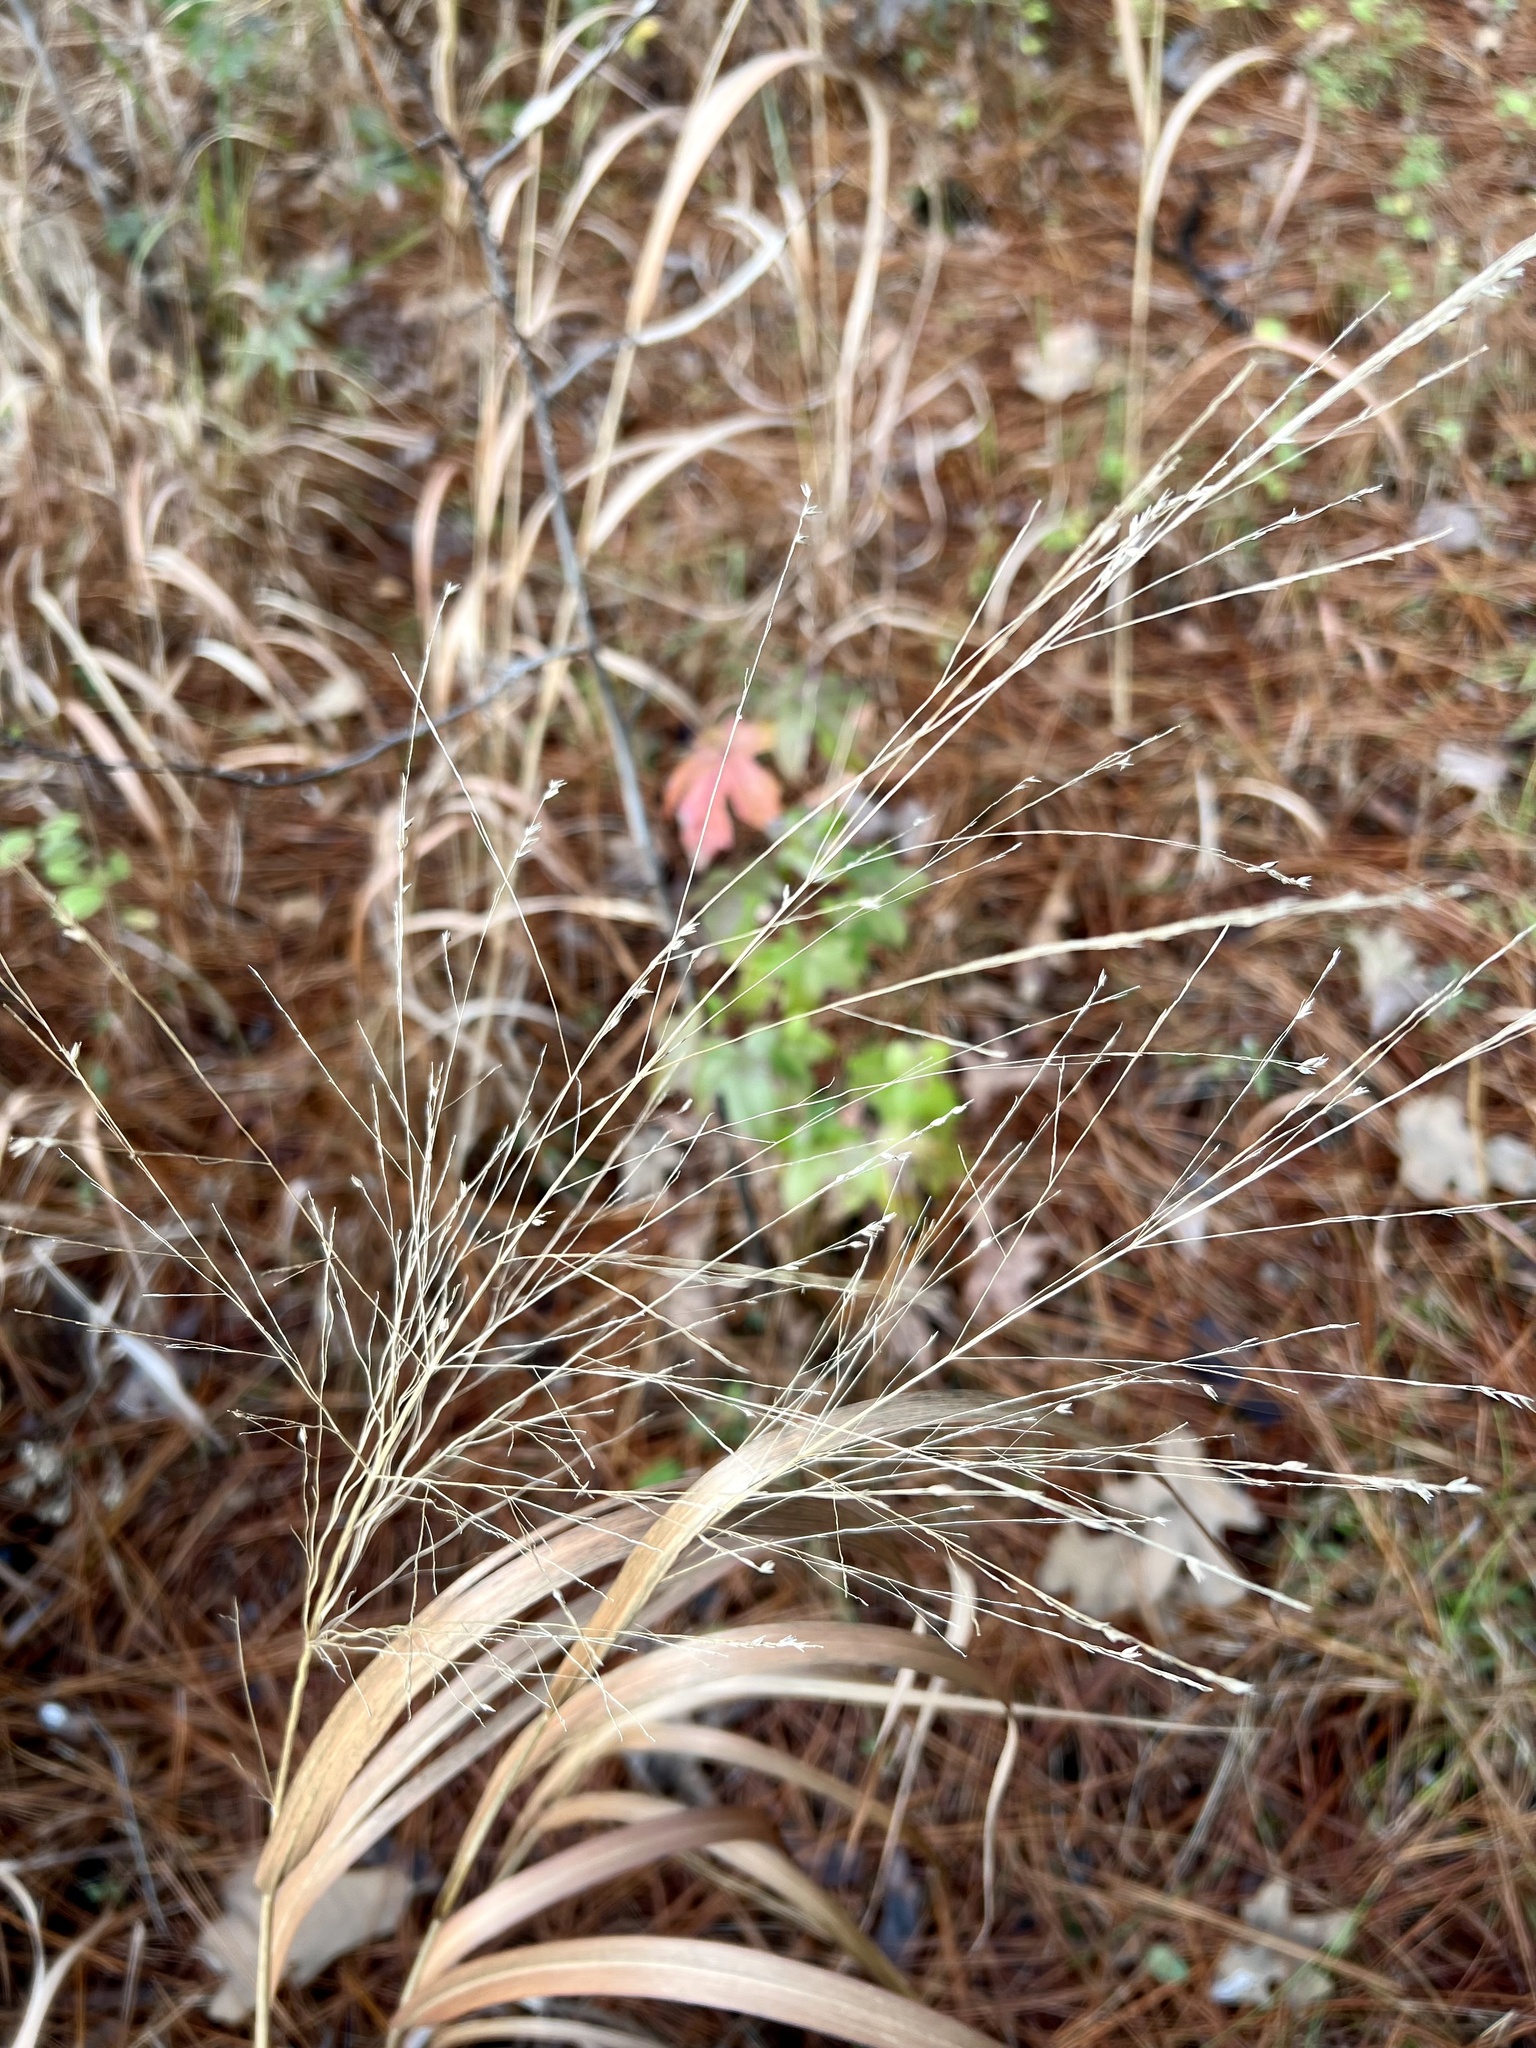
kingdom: Plantae
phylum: Tracheophyta
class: Liliopsida
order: Poales
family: Poaceae
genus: Panicum
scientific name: Panicum virgatum
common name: Switchgrass
